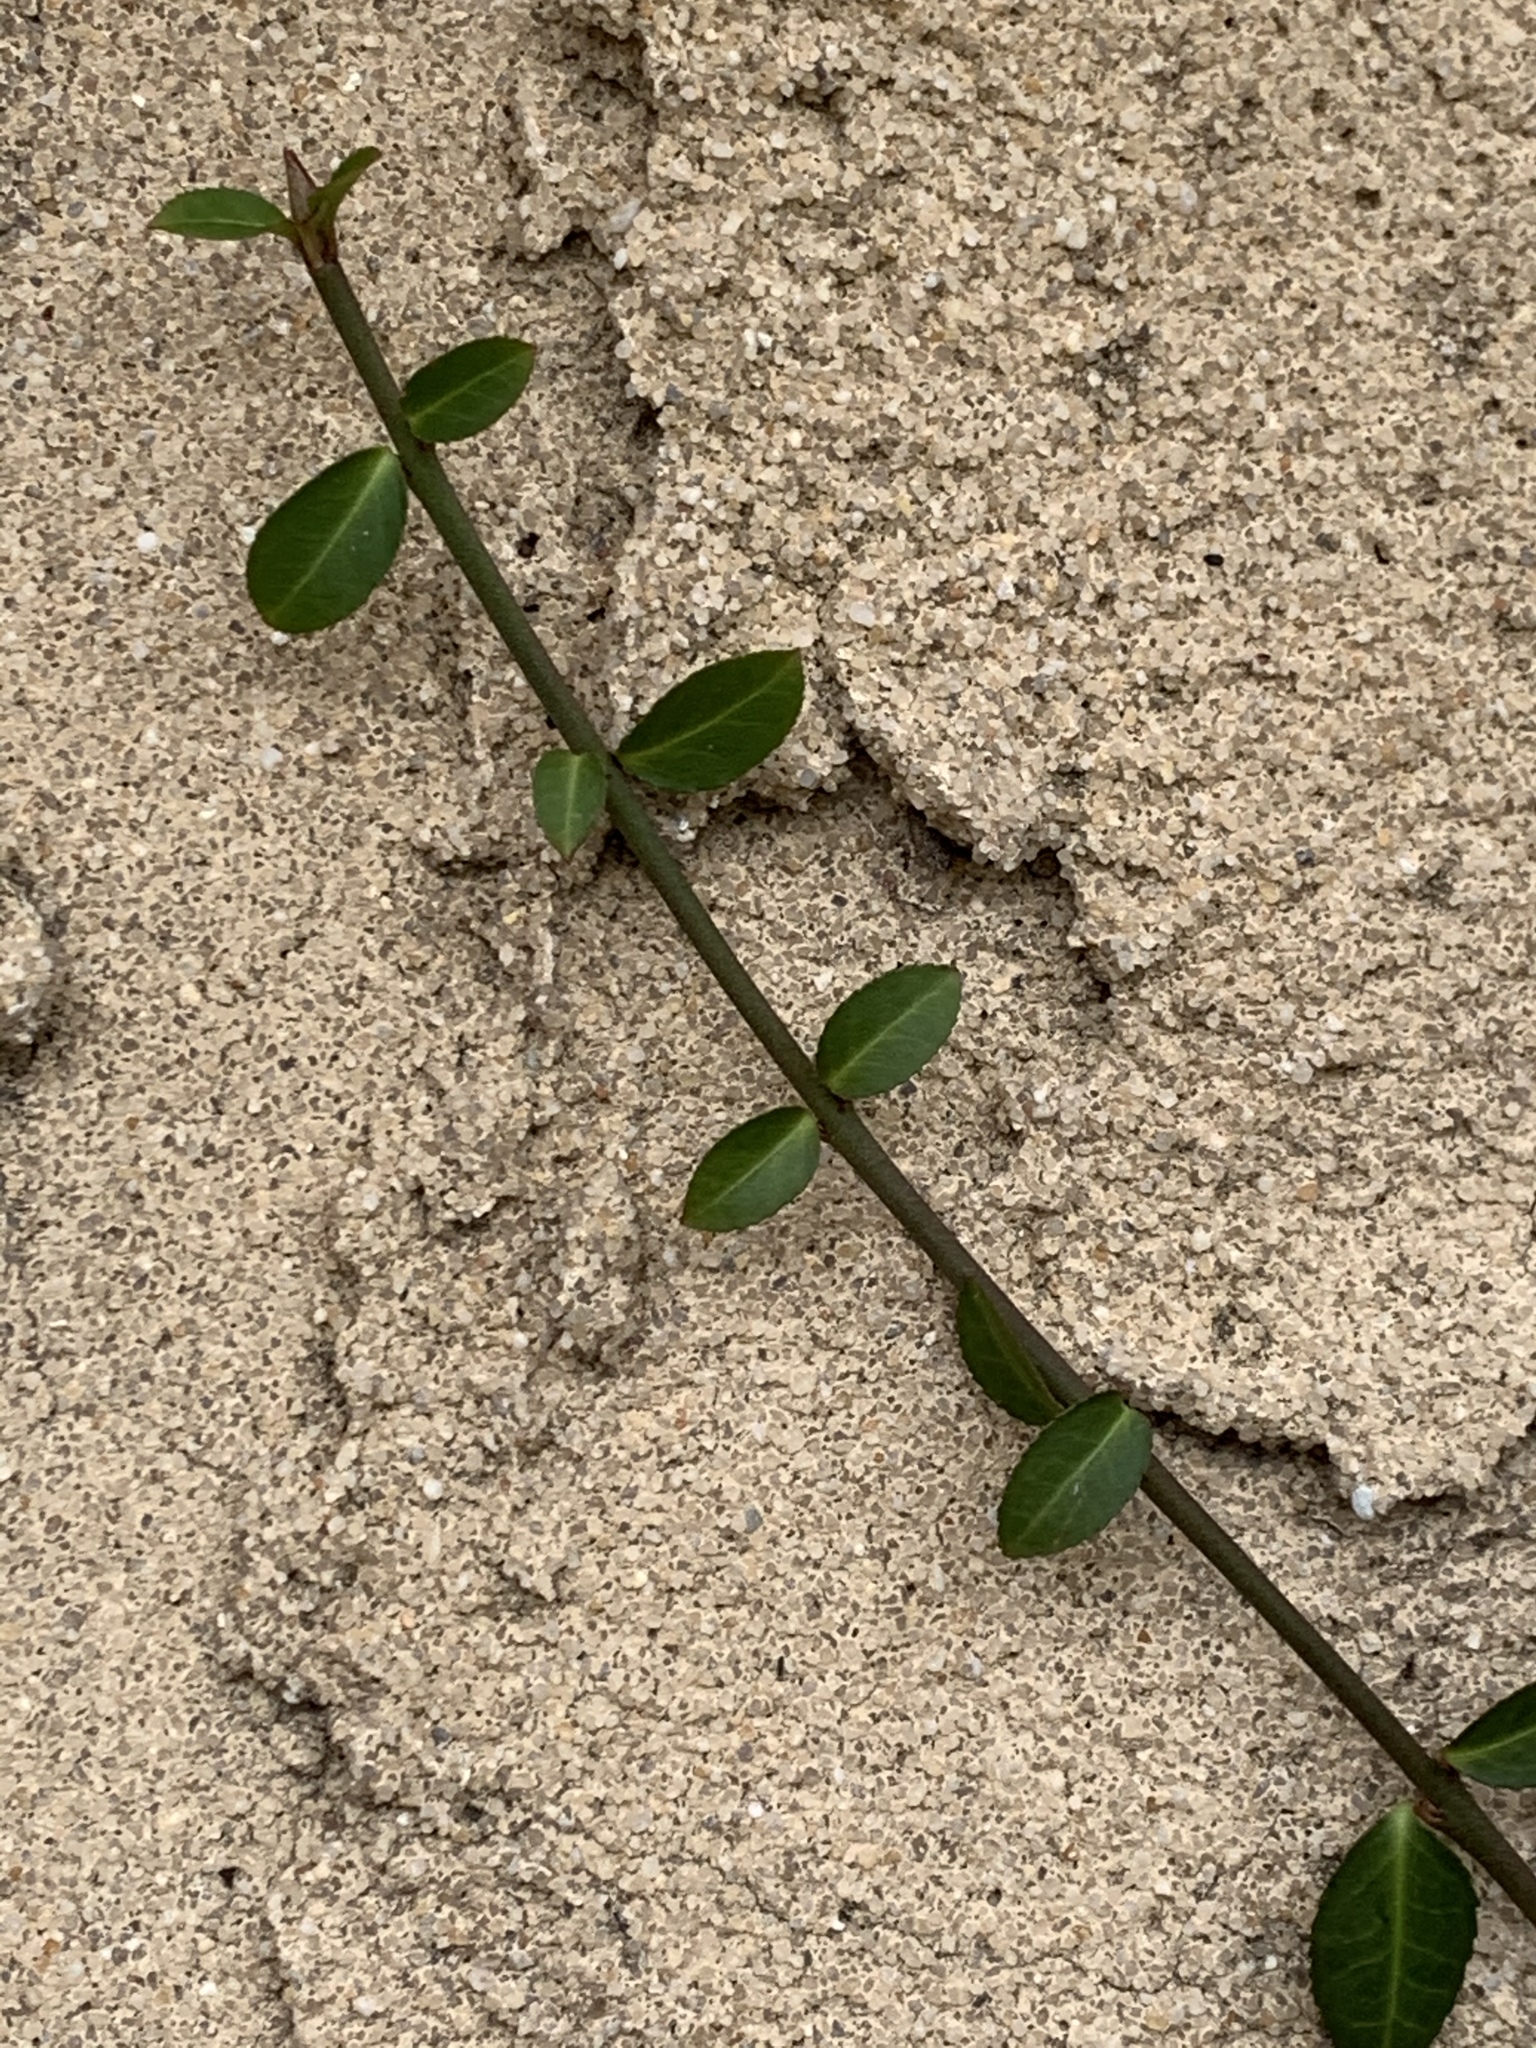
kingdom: Plantae
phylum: Tracheophyta
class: Magnoliopsida
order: Celastrales
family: Celastraceae
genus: Euonymus
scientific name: Euonymus fortunei
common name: Climbing euonymus
